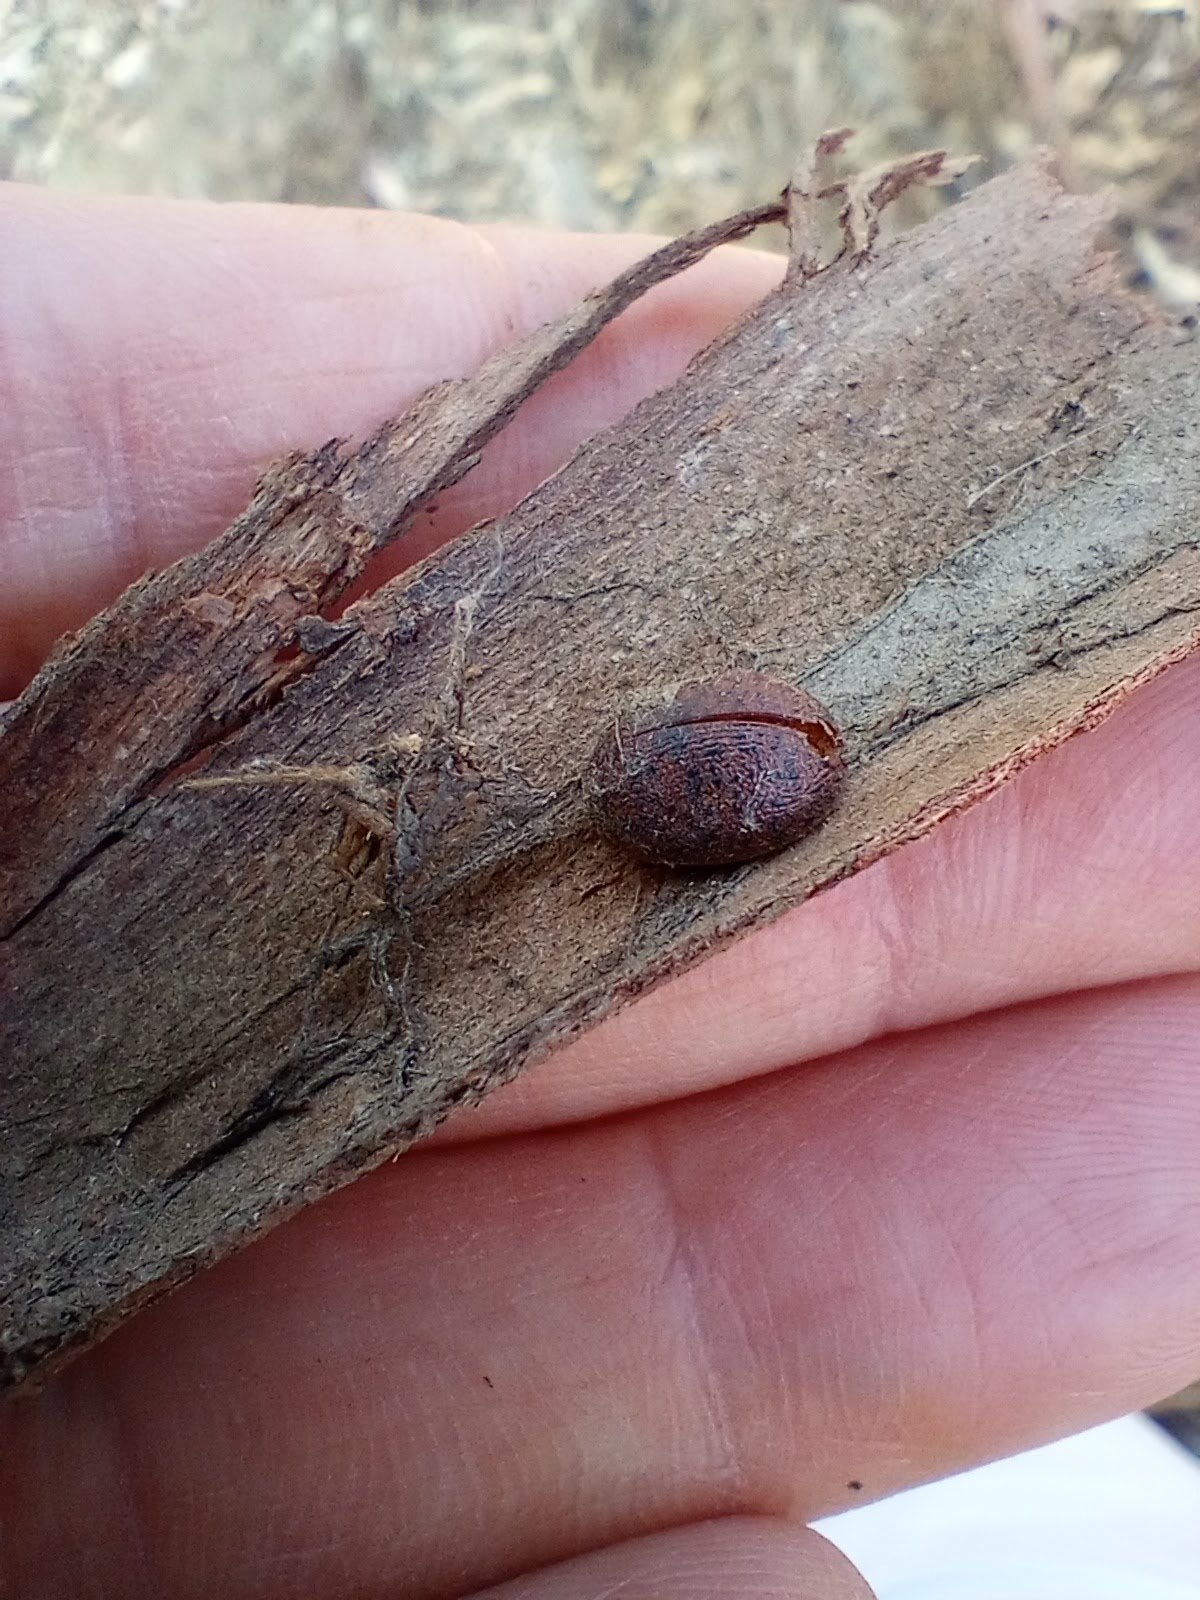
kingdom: Animalia
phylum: Arthropoda
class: Insecta
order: Coleoptera
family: Chrysomelidae
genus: Trachymela
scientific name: Trachymela sloanei
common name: Australian tortoise beetle
